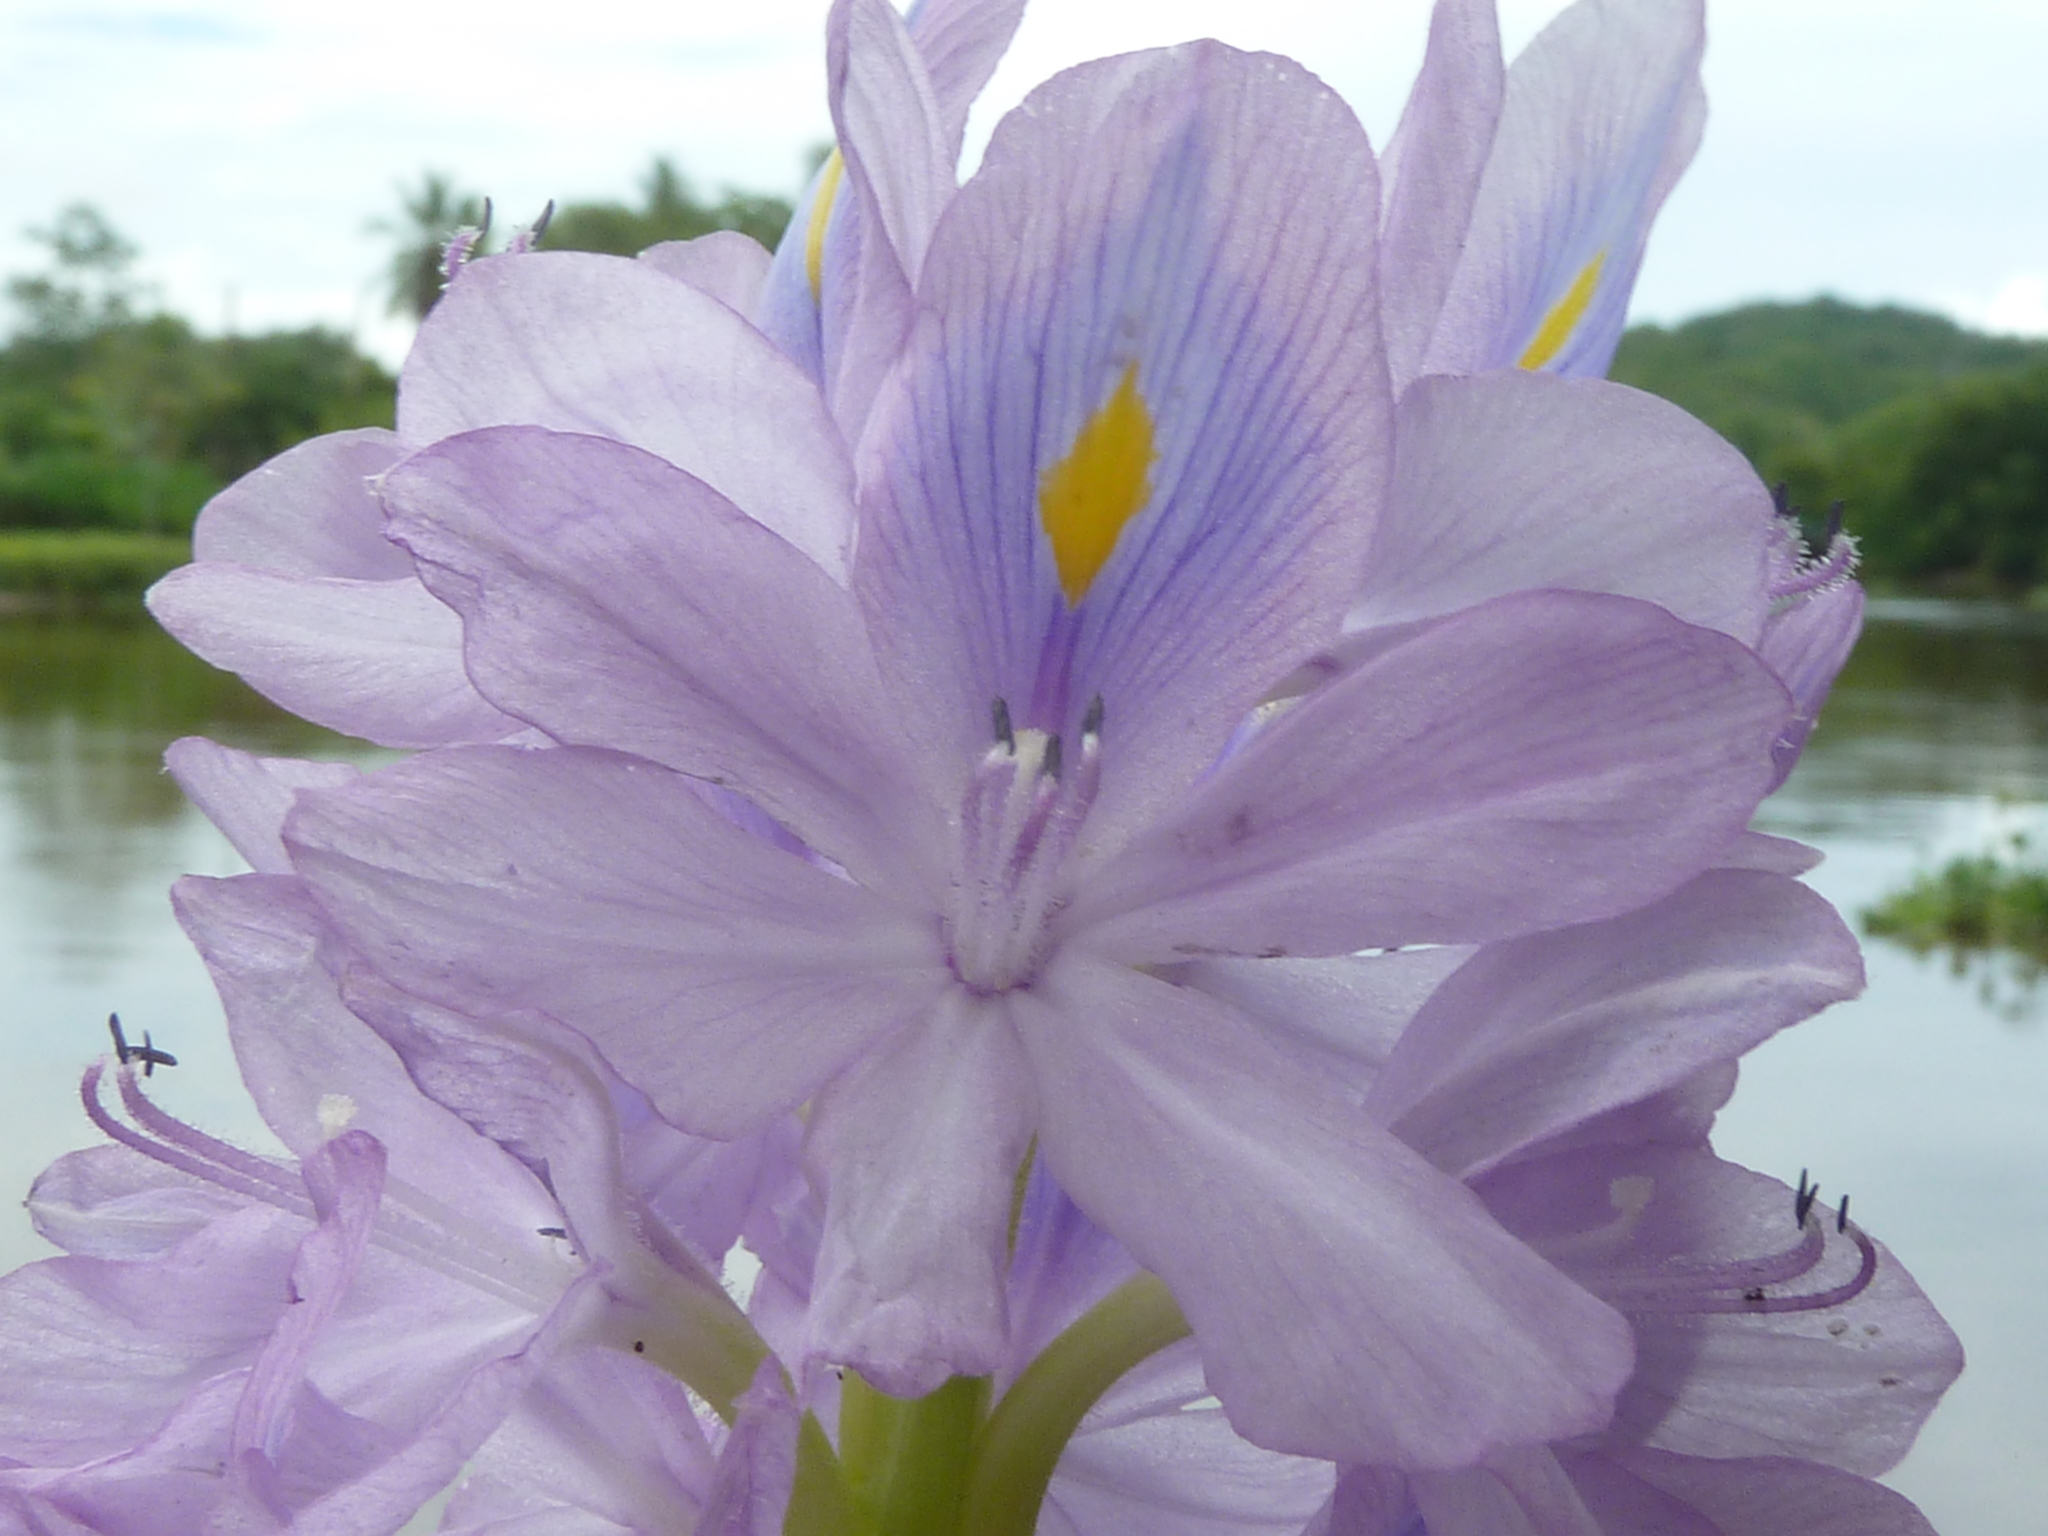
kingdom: Plantae
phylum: Tracheophyta
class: Liliopsida
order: Commelinales
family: Pontederiaceae
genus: Pontederia
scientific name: Pontederia crassipes
